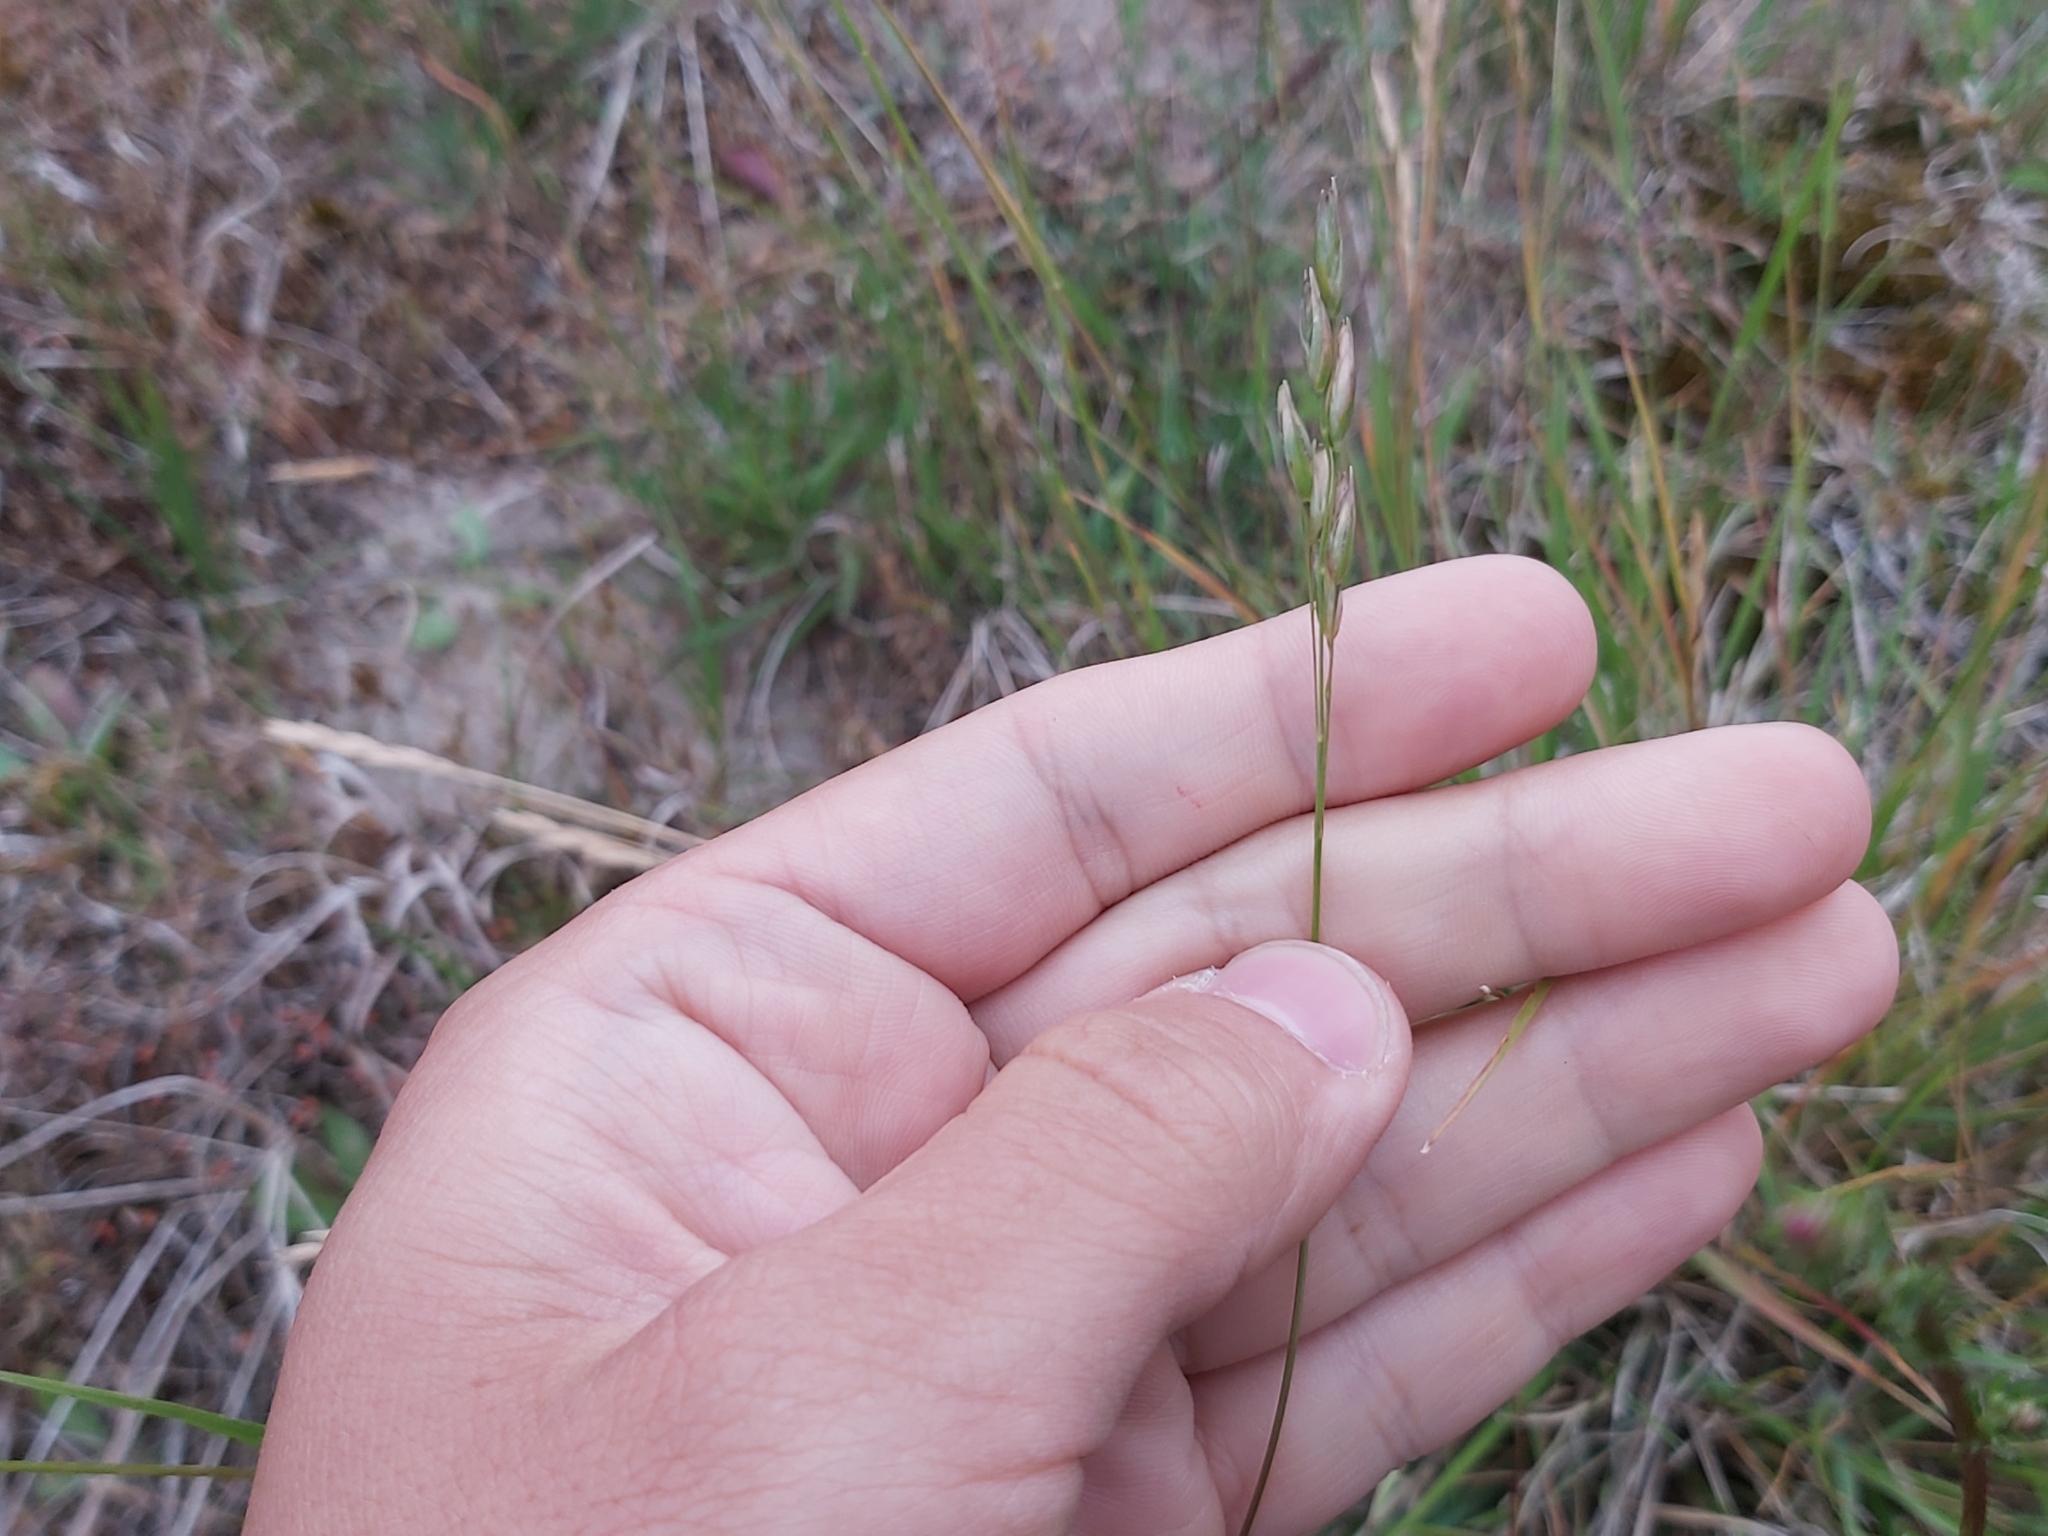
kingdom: Plantae
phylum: Tracheophyta
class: Liliopsida
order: Poales
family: Poaceae
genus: Danthonia
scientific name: Danthonia decumbens
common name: Common heathgrass
